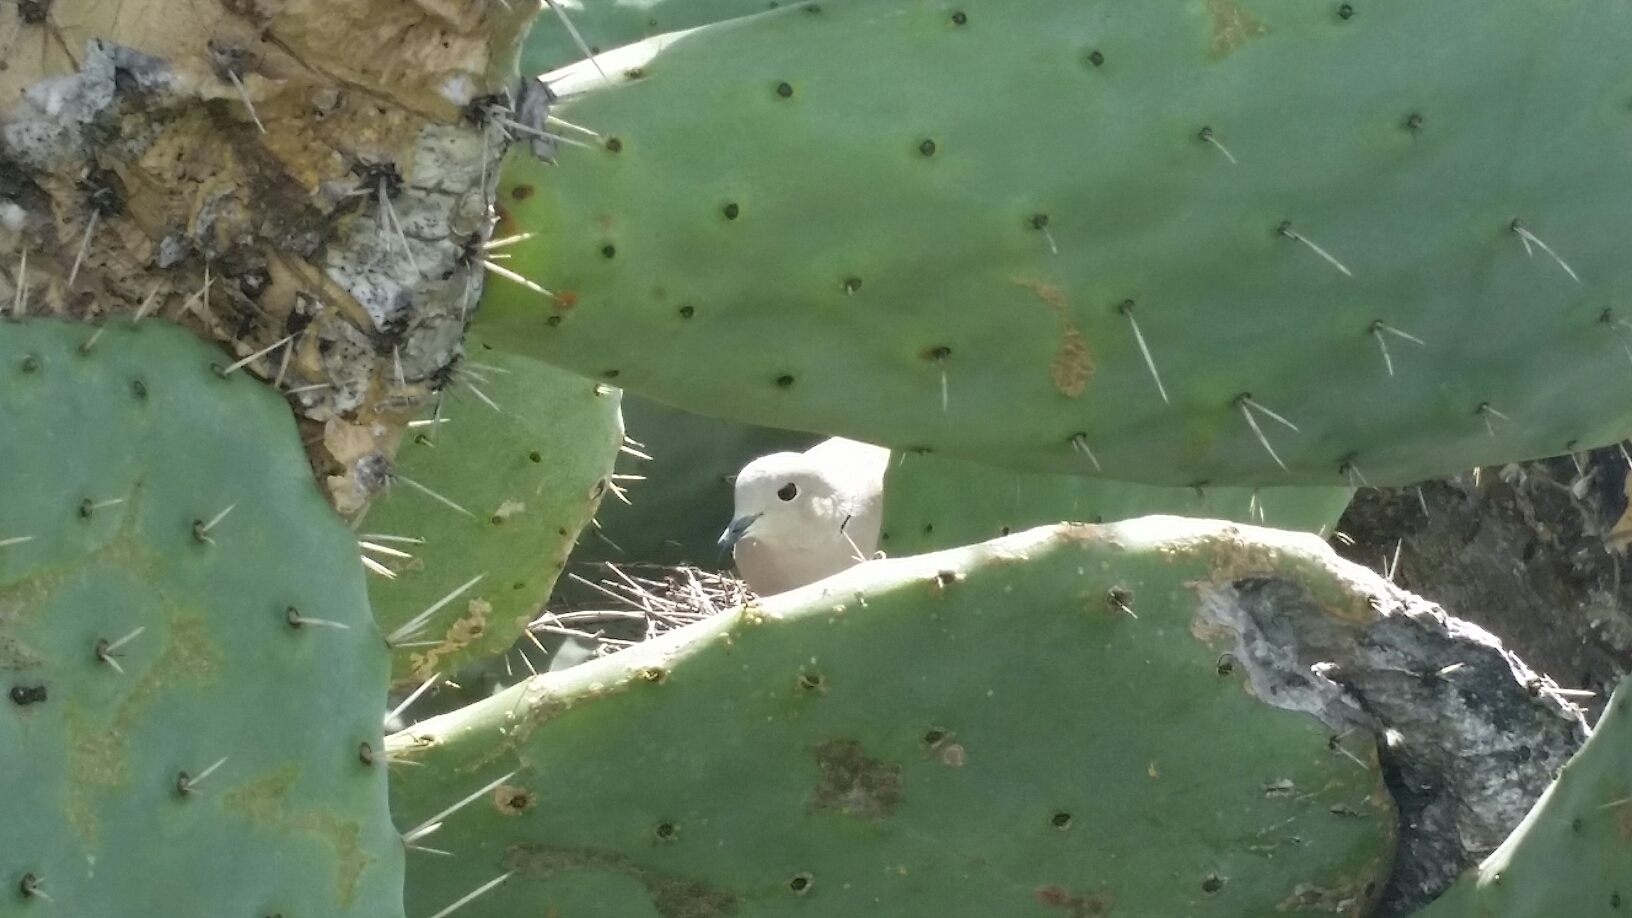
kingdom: Animalia
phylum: Chordata
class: Aves
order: Columbiformes
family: Columbidae
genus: Streptopelia
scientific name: Streptopelia decaocto
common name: Eurasian collared dove
